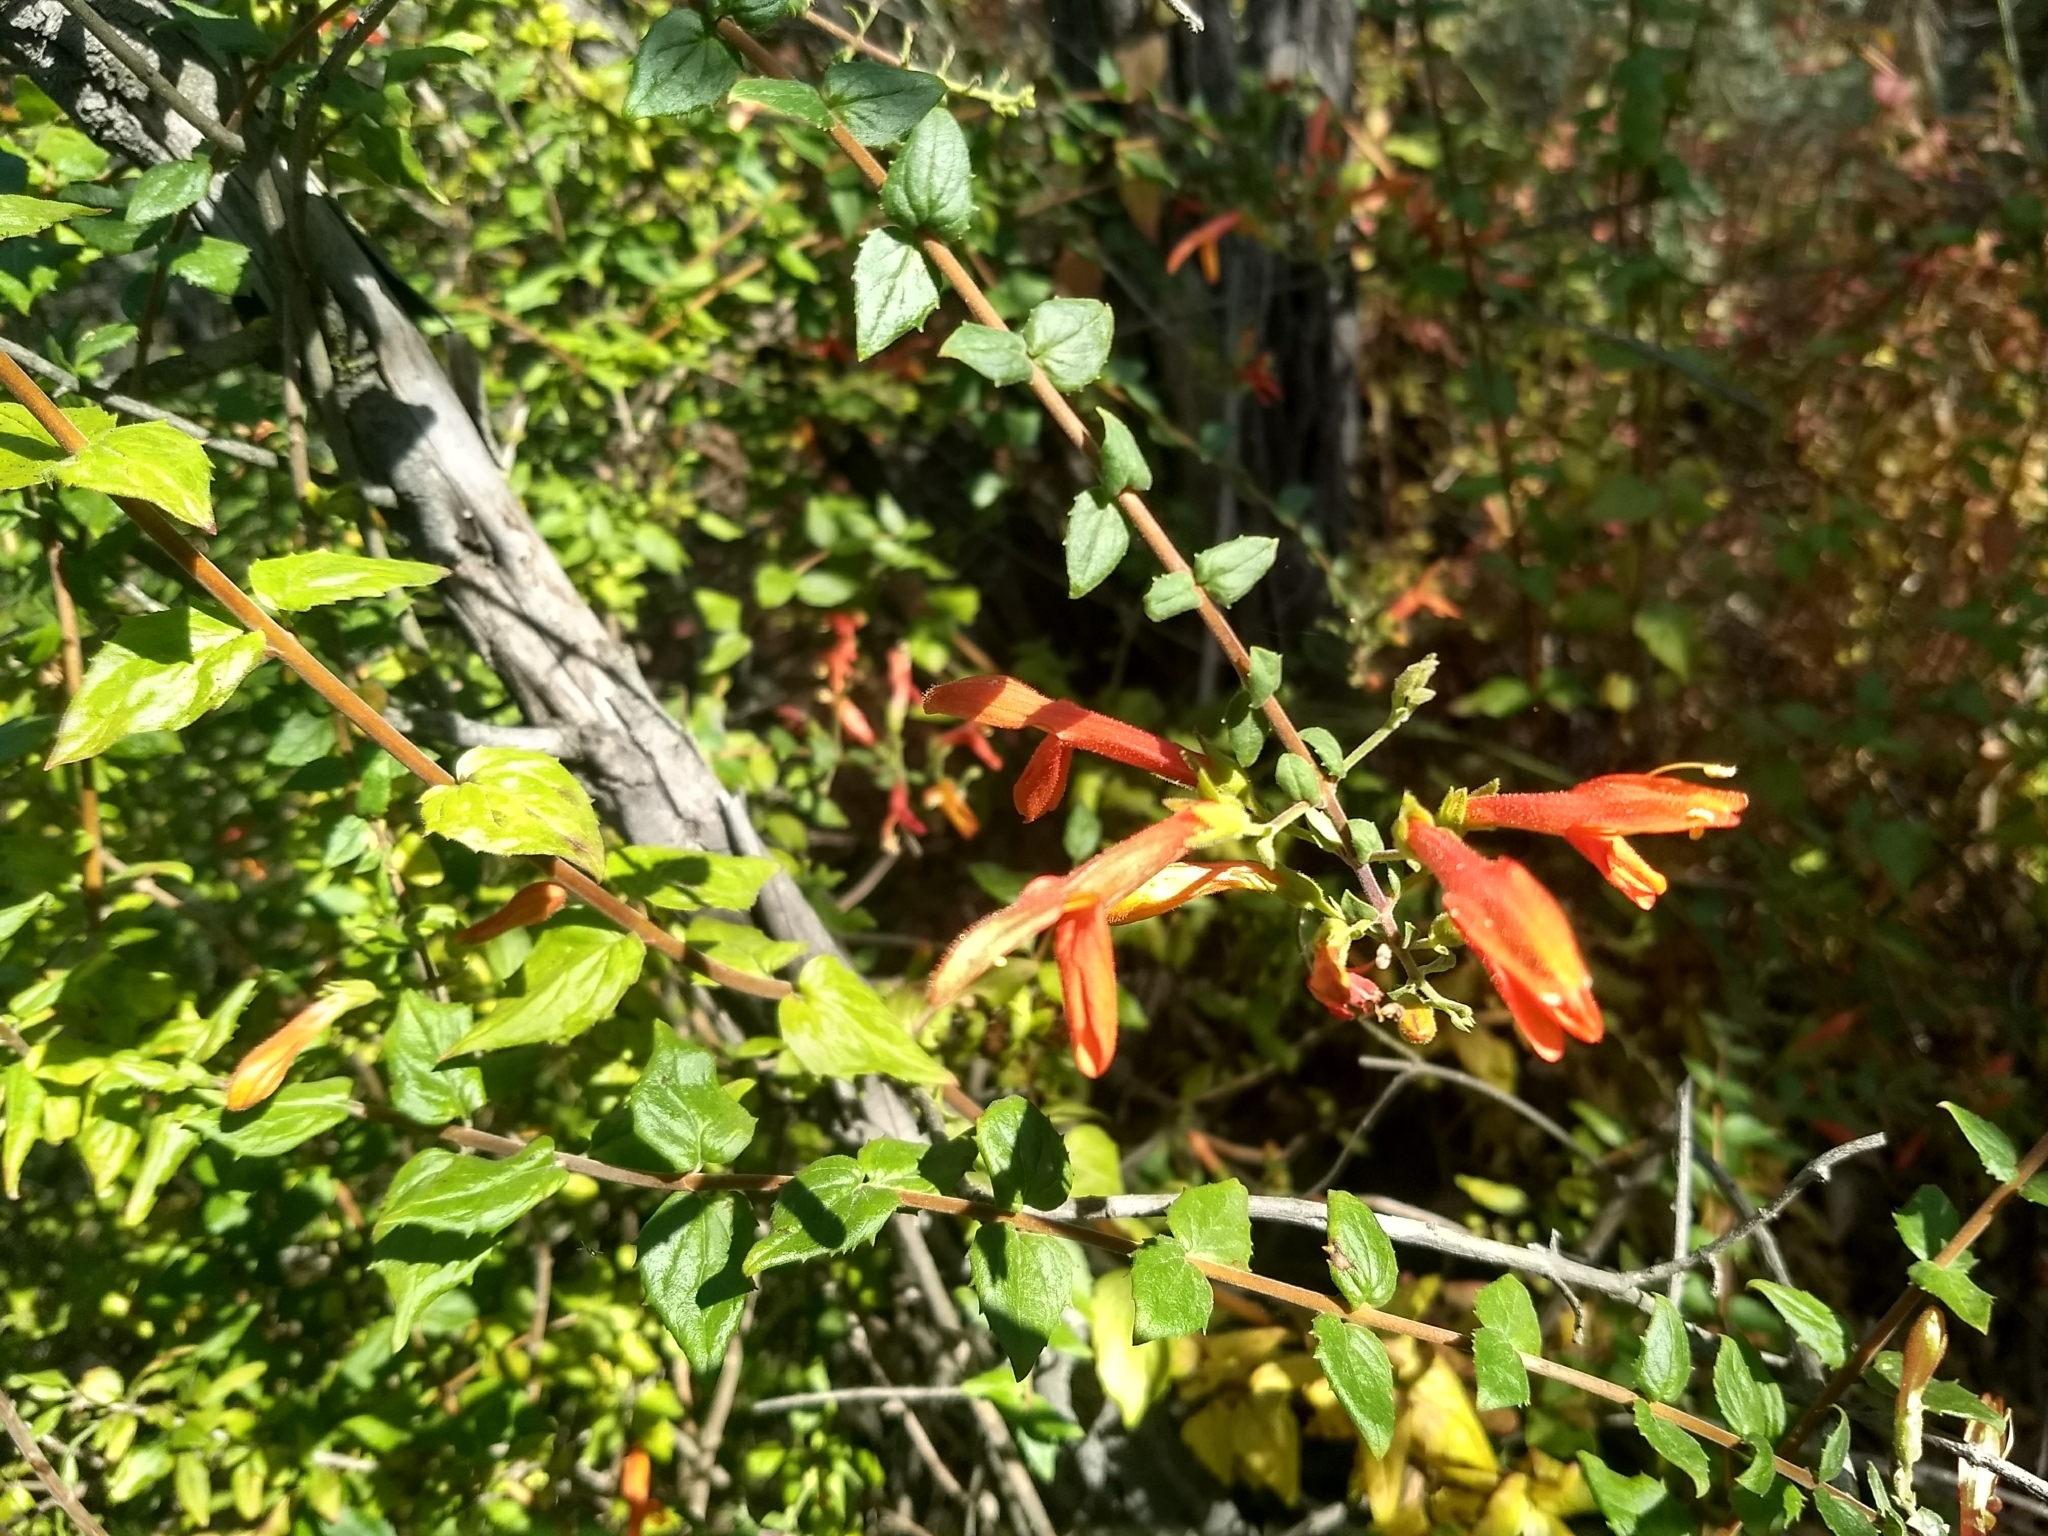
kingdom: Plantae
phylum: Tracheophyta
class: Magnoliopsida
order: Lamiales
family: Plantaginaceae
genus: Keckiella
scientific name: Keckiella cordifolia
